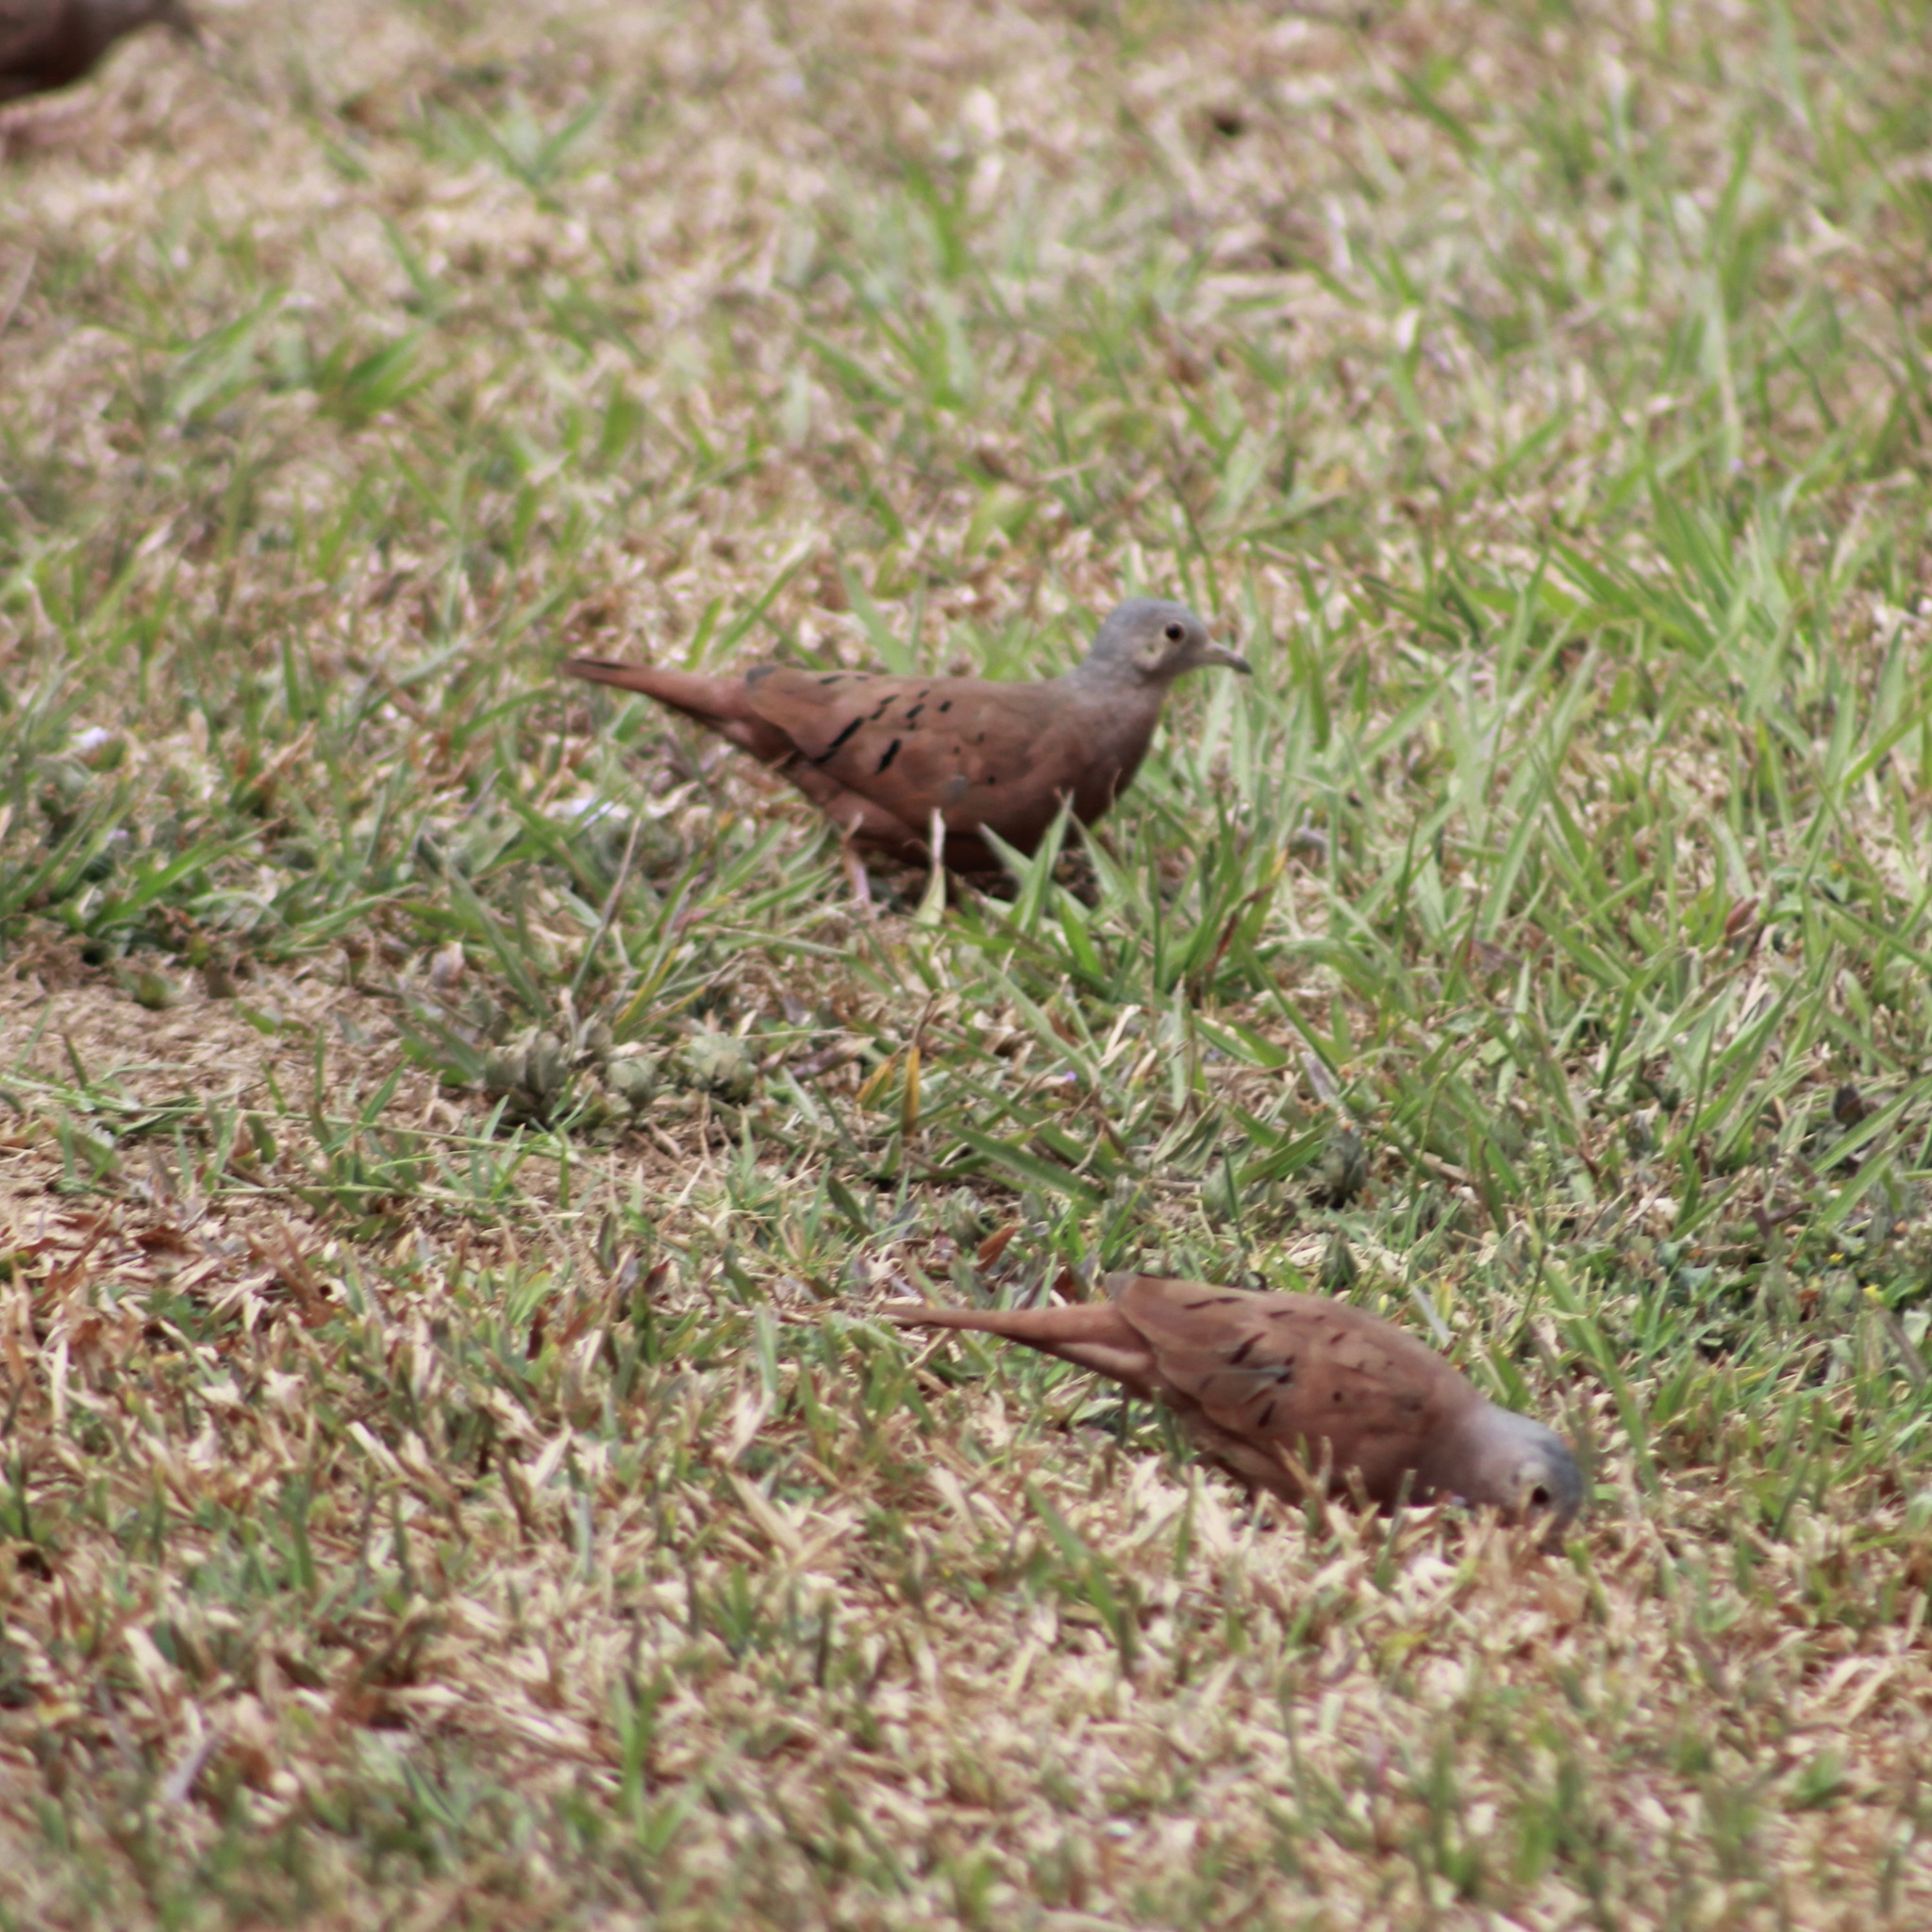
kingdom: Animalia
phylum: Chordata
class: Aves
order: Columbiformes
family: Columbidae
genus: Columbina
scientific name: Columbina talpacoti
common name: Ruddy ground dove
